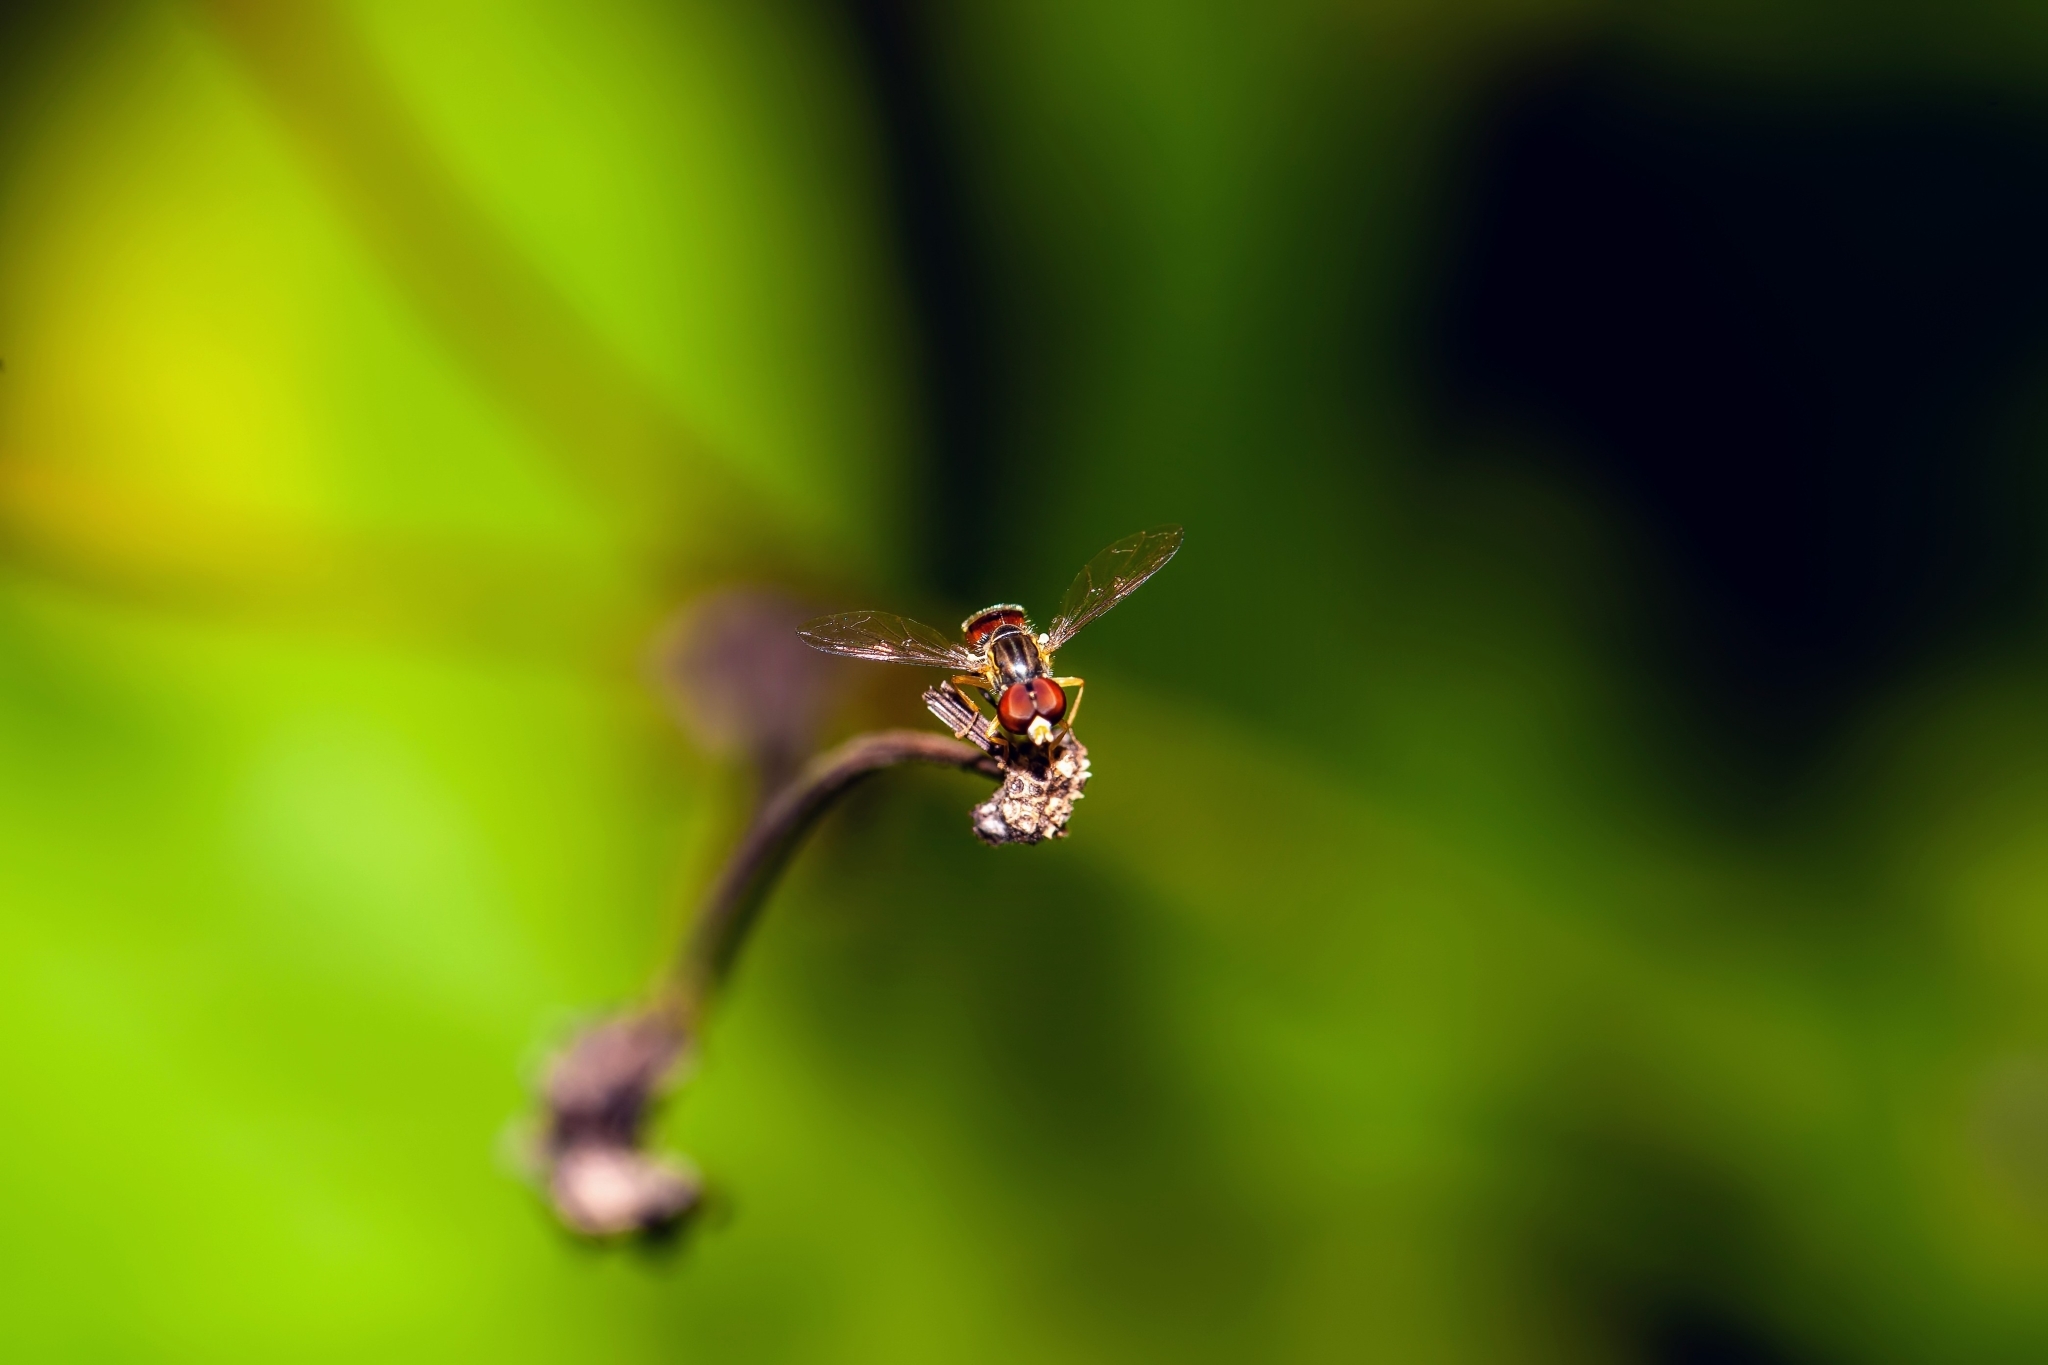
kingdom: Animalia
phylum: Arthropoda
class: Insecta
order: Diptera
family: Syrphidae
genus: Toxomerus
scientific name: Toxomerus boscii
